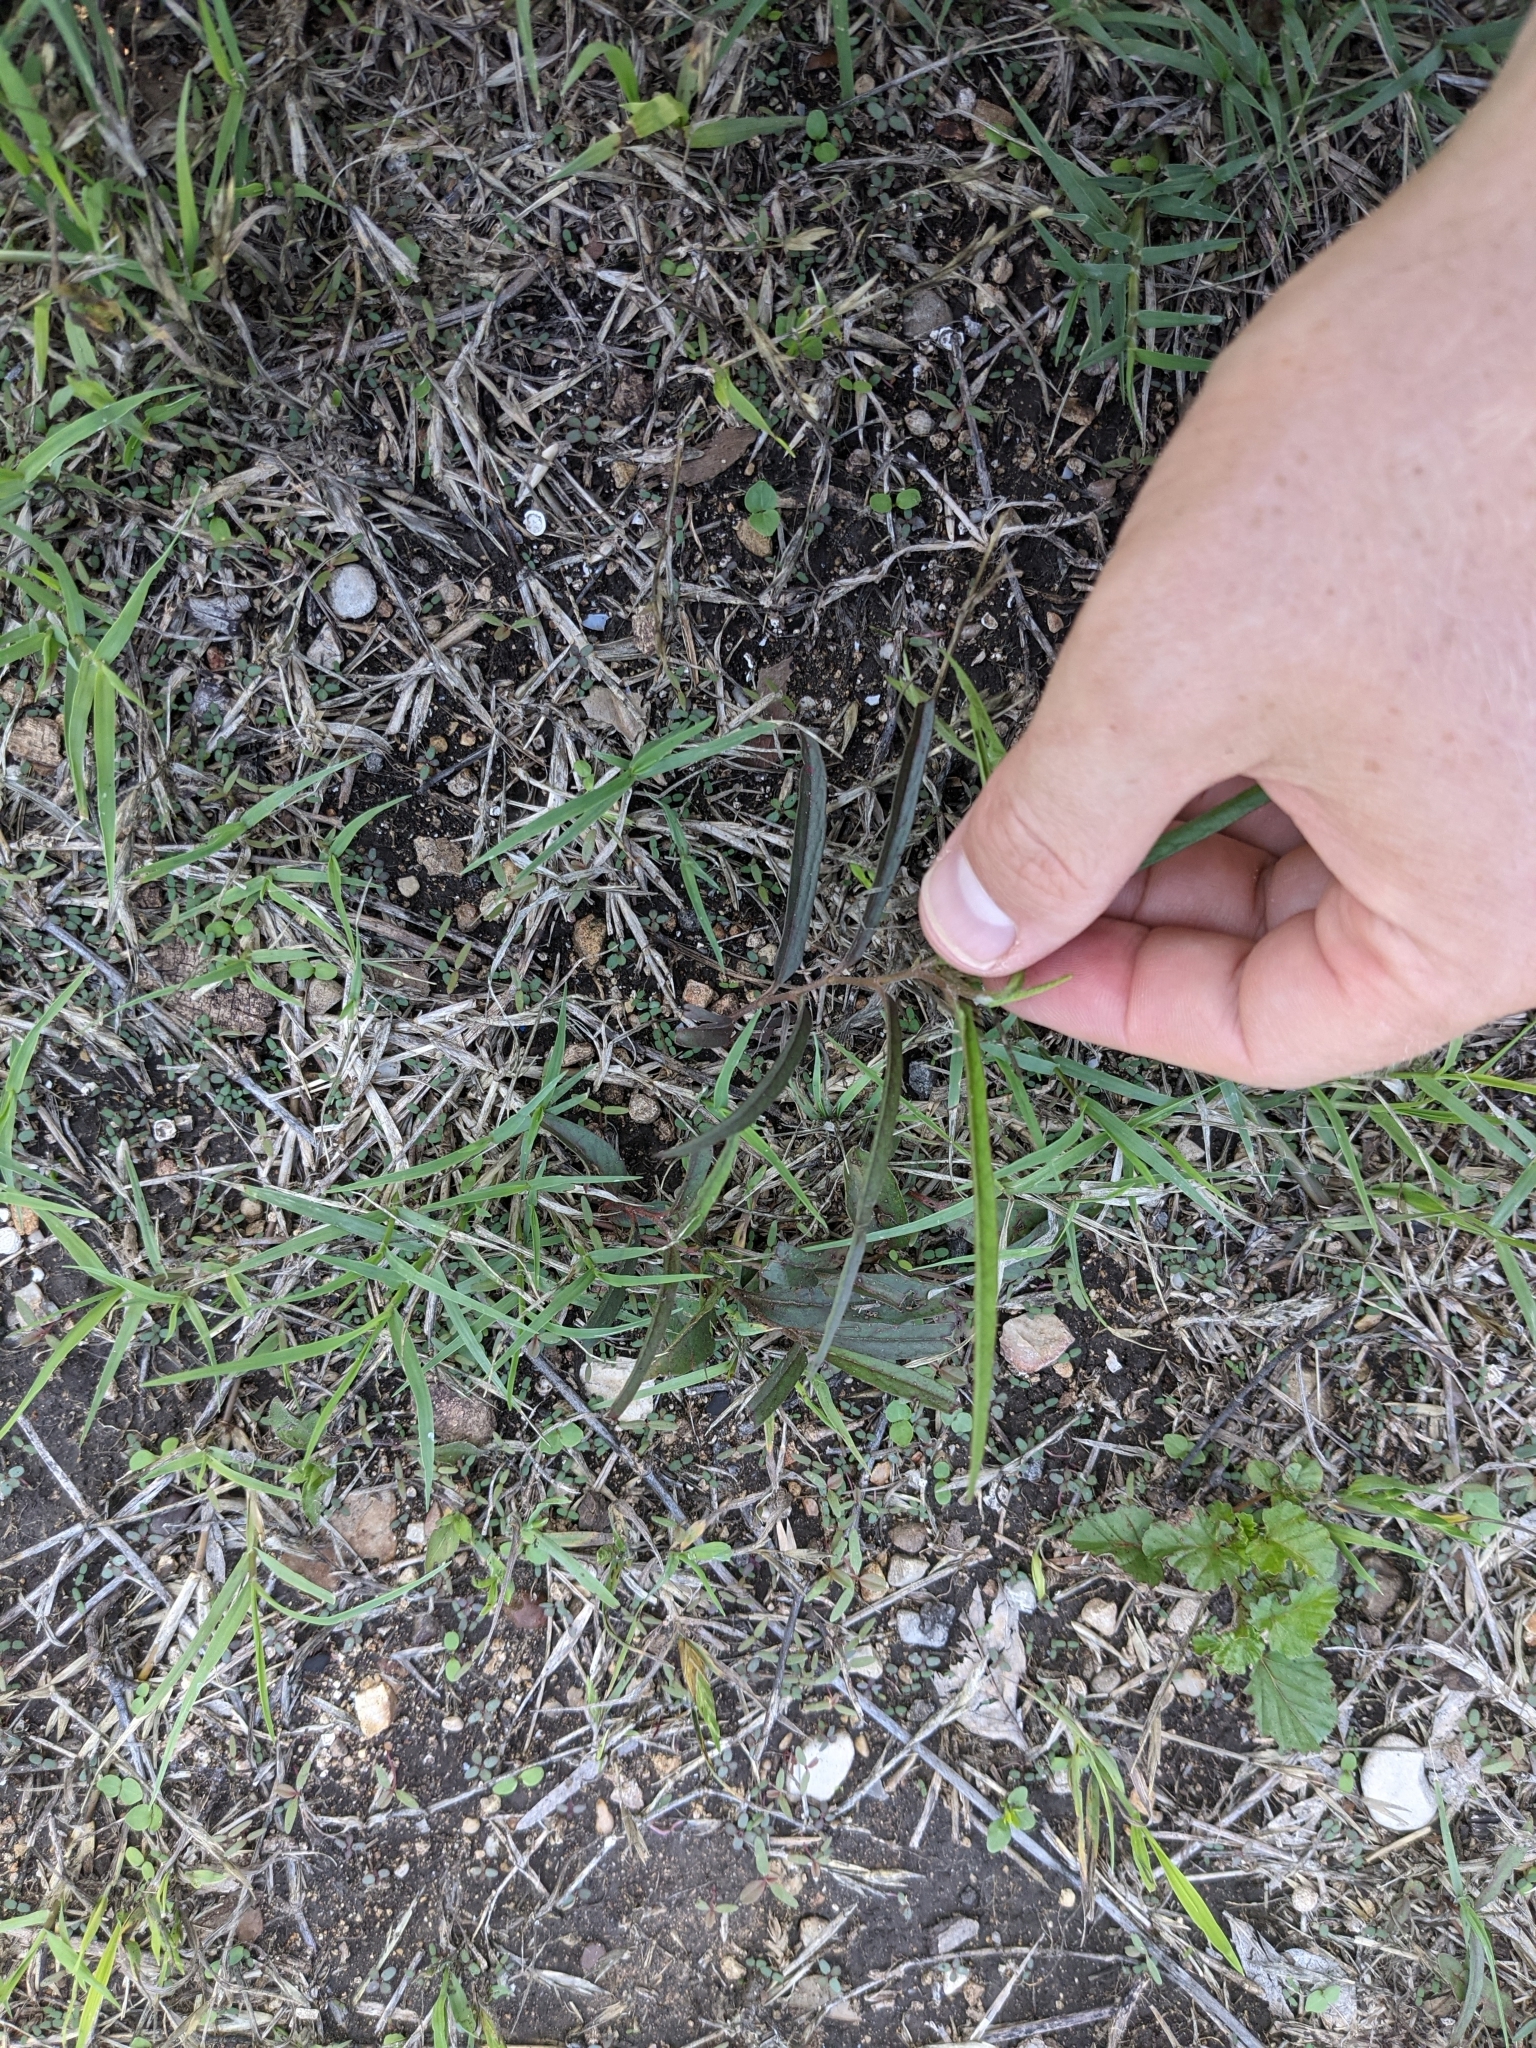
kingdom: Plantae
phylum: Tracheophyta
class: Magnoliopsida
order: Piperales
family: Aristolochiaceae
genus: Aristolochia
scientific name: Aristolochia erecta
